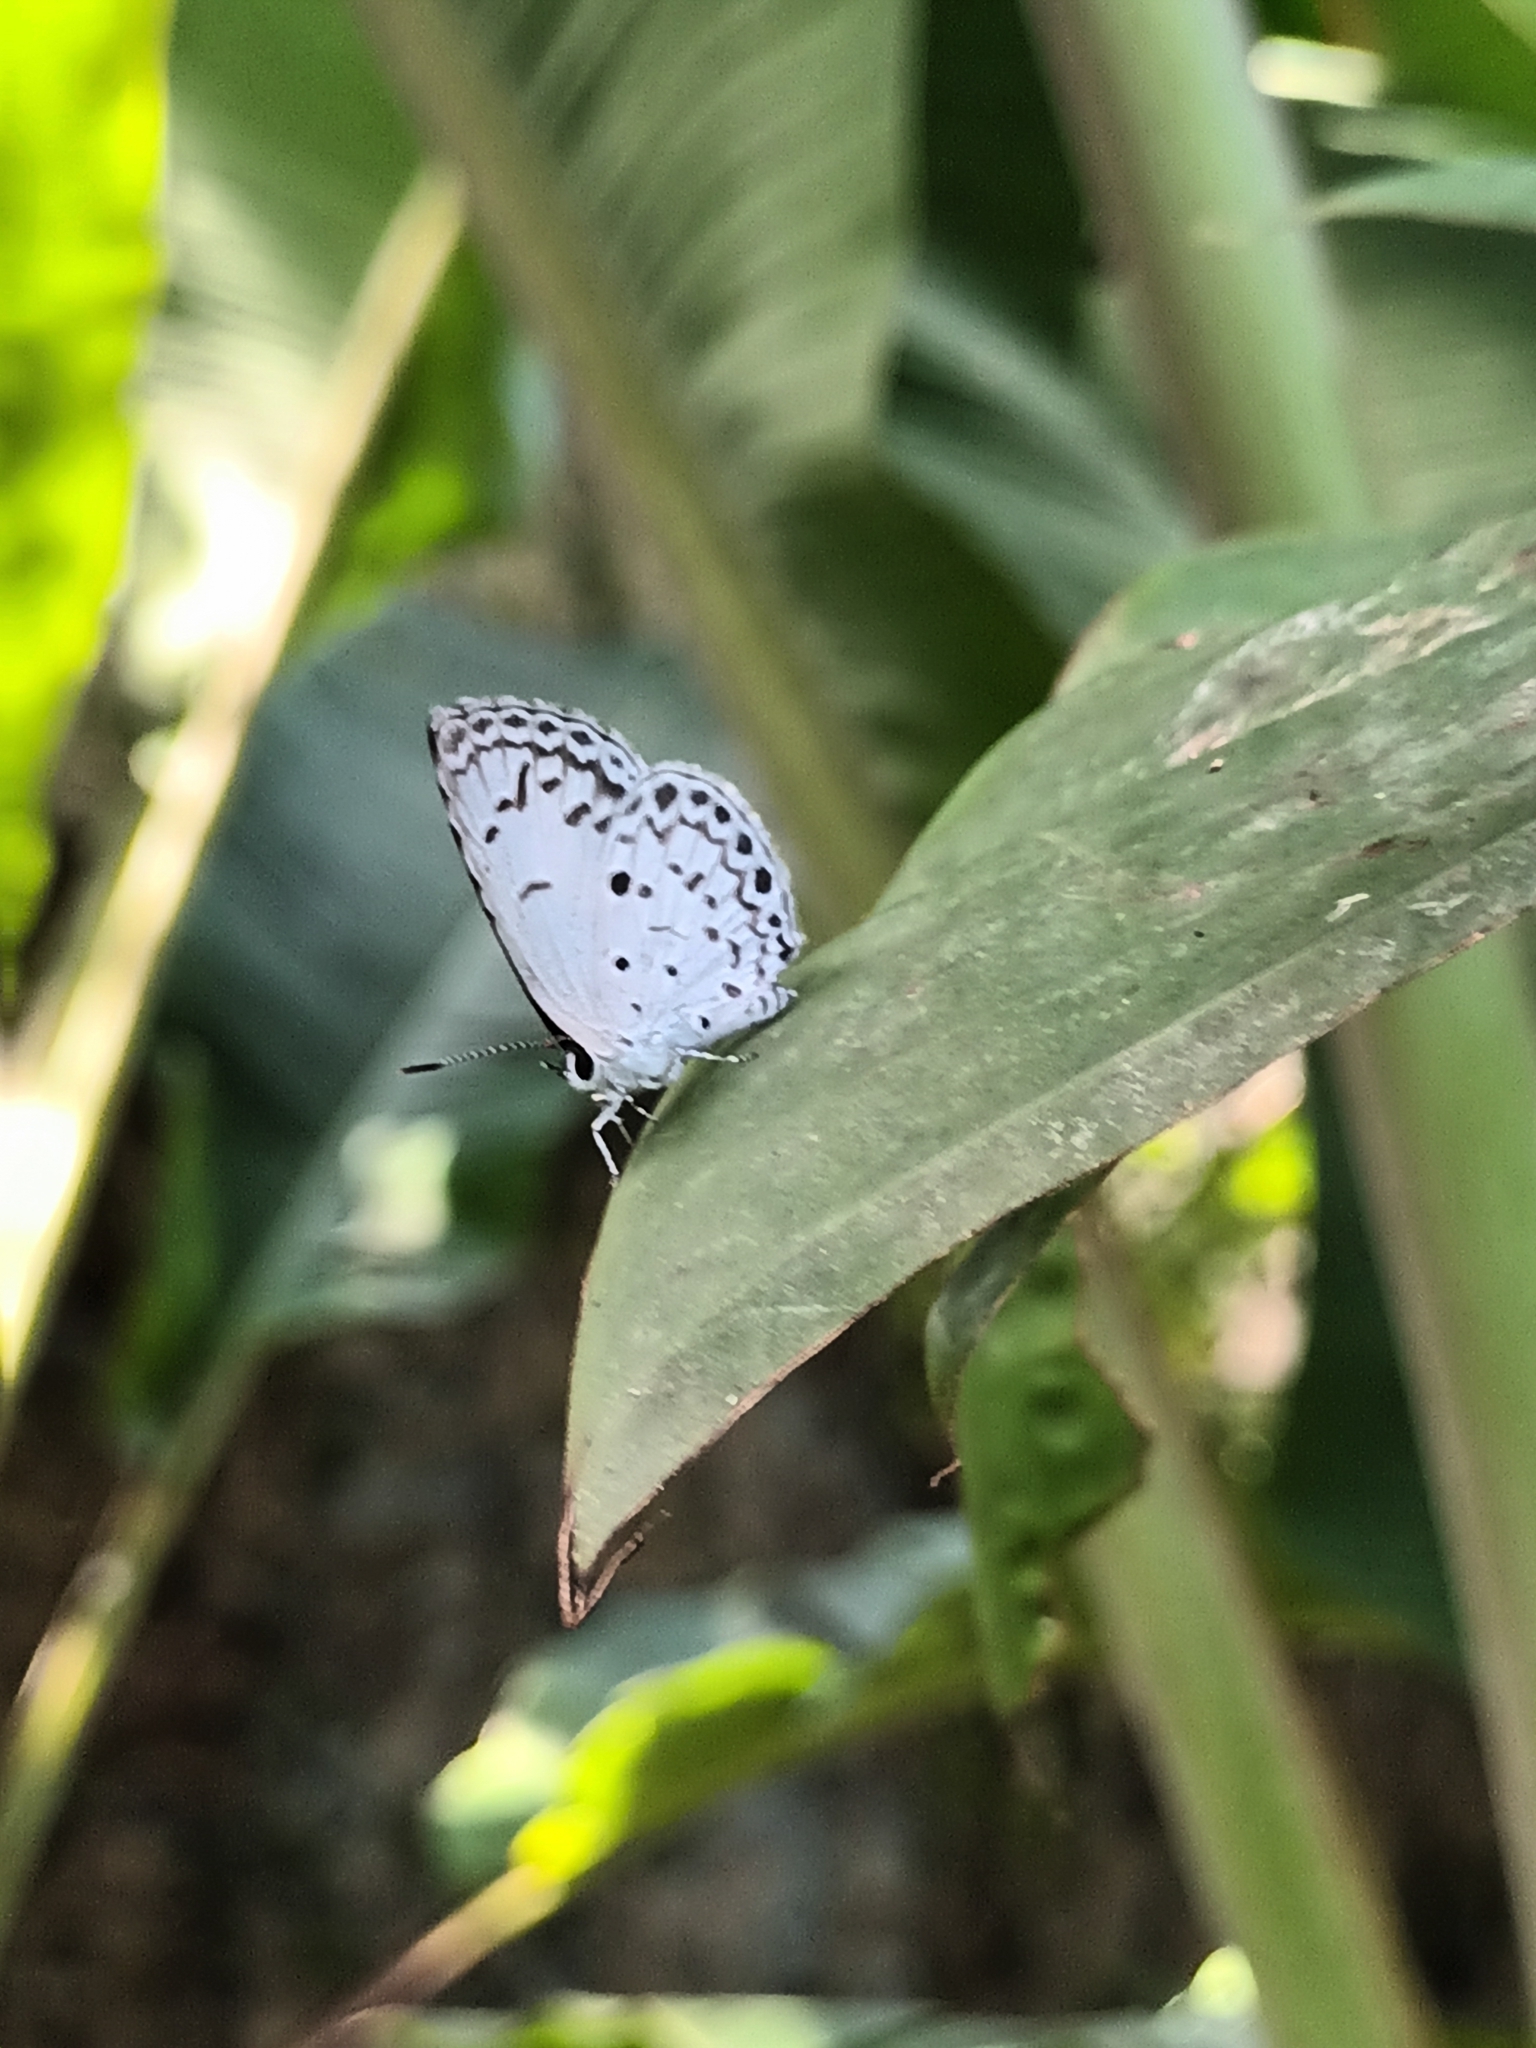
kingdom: Animalia
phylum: Arthropoda
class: Insecta
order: Lepidoptera
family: Lycaenidae
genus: Acytolepis
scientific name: Acytolepis puspa
